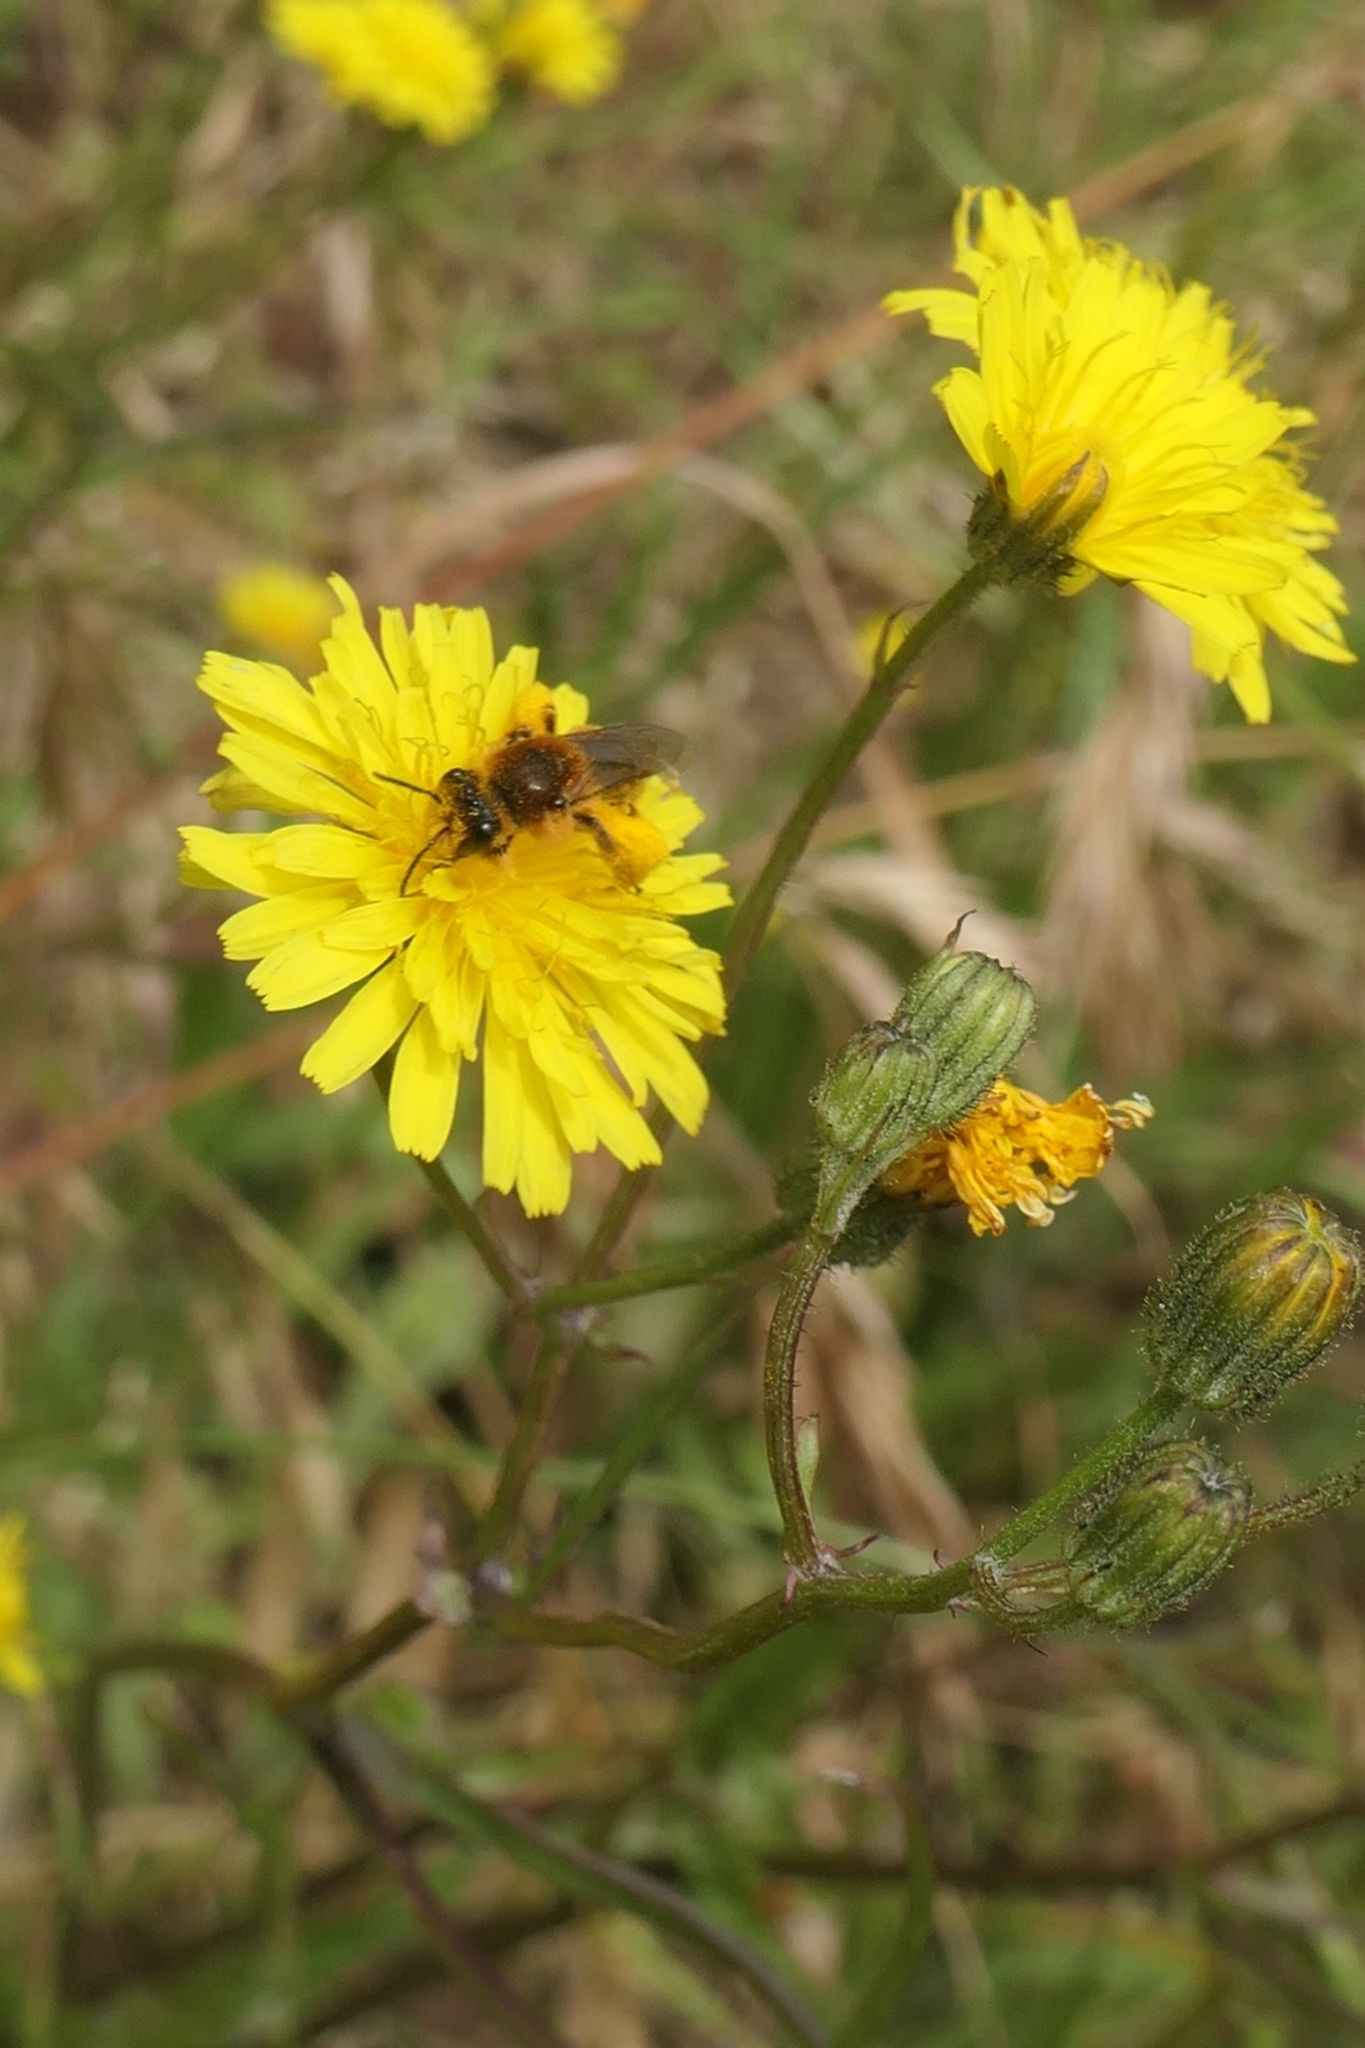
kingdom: Animalia
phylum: Arthropoda
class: Insecta
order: Hymenoptera
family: Colletidae
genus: Leioproctus
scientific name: Leioproctus fulvescens
